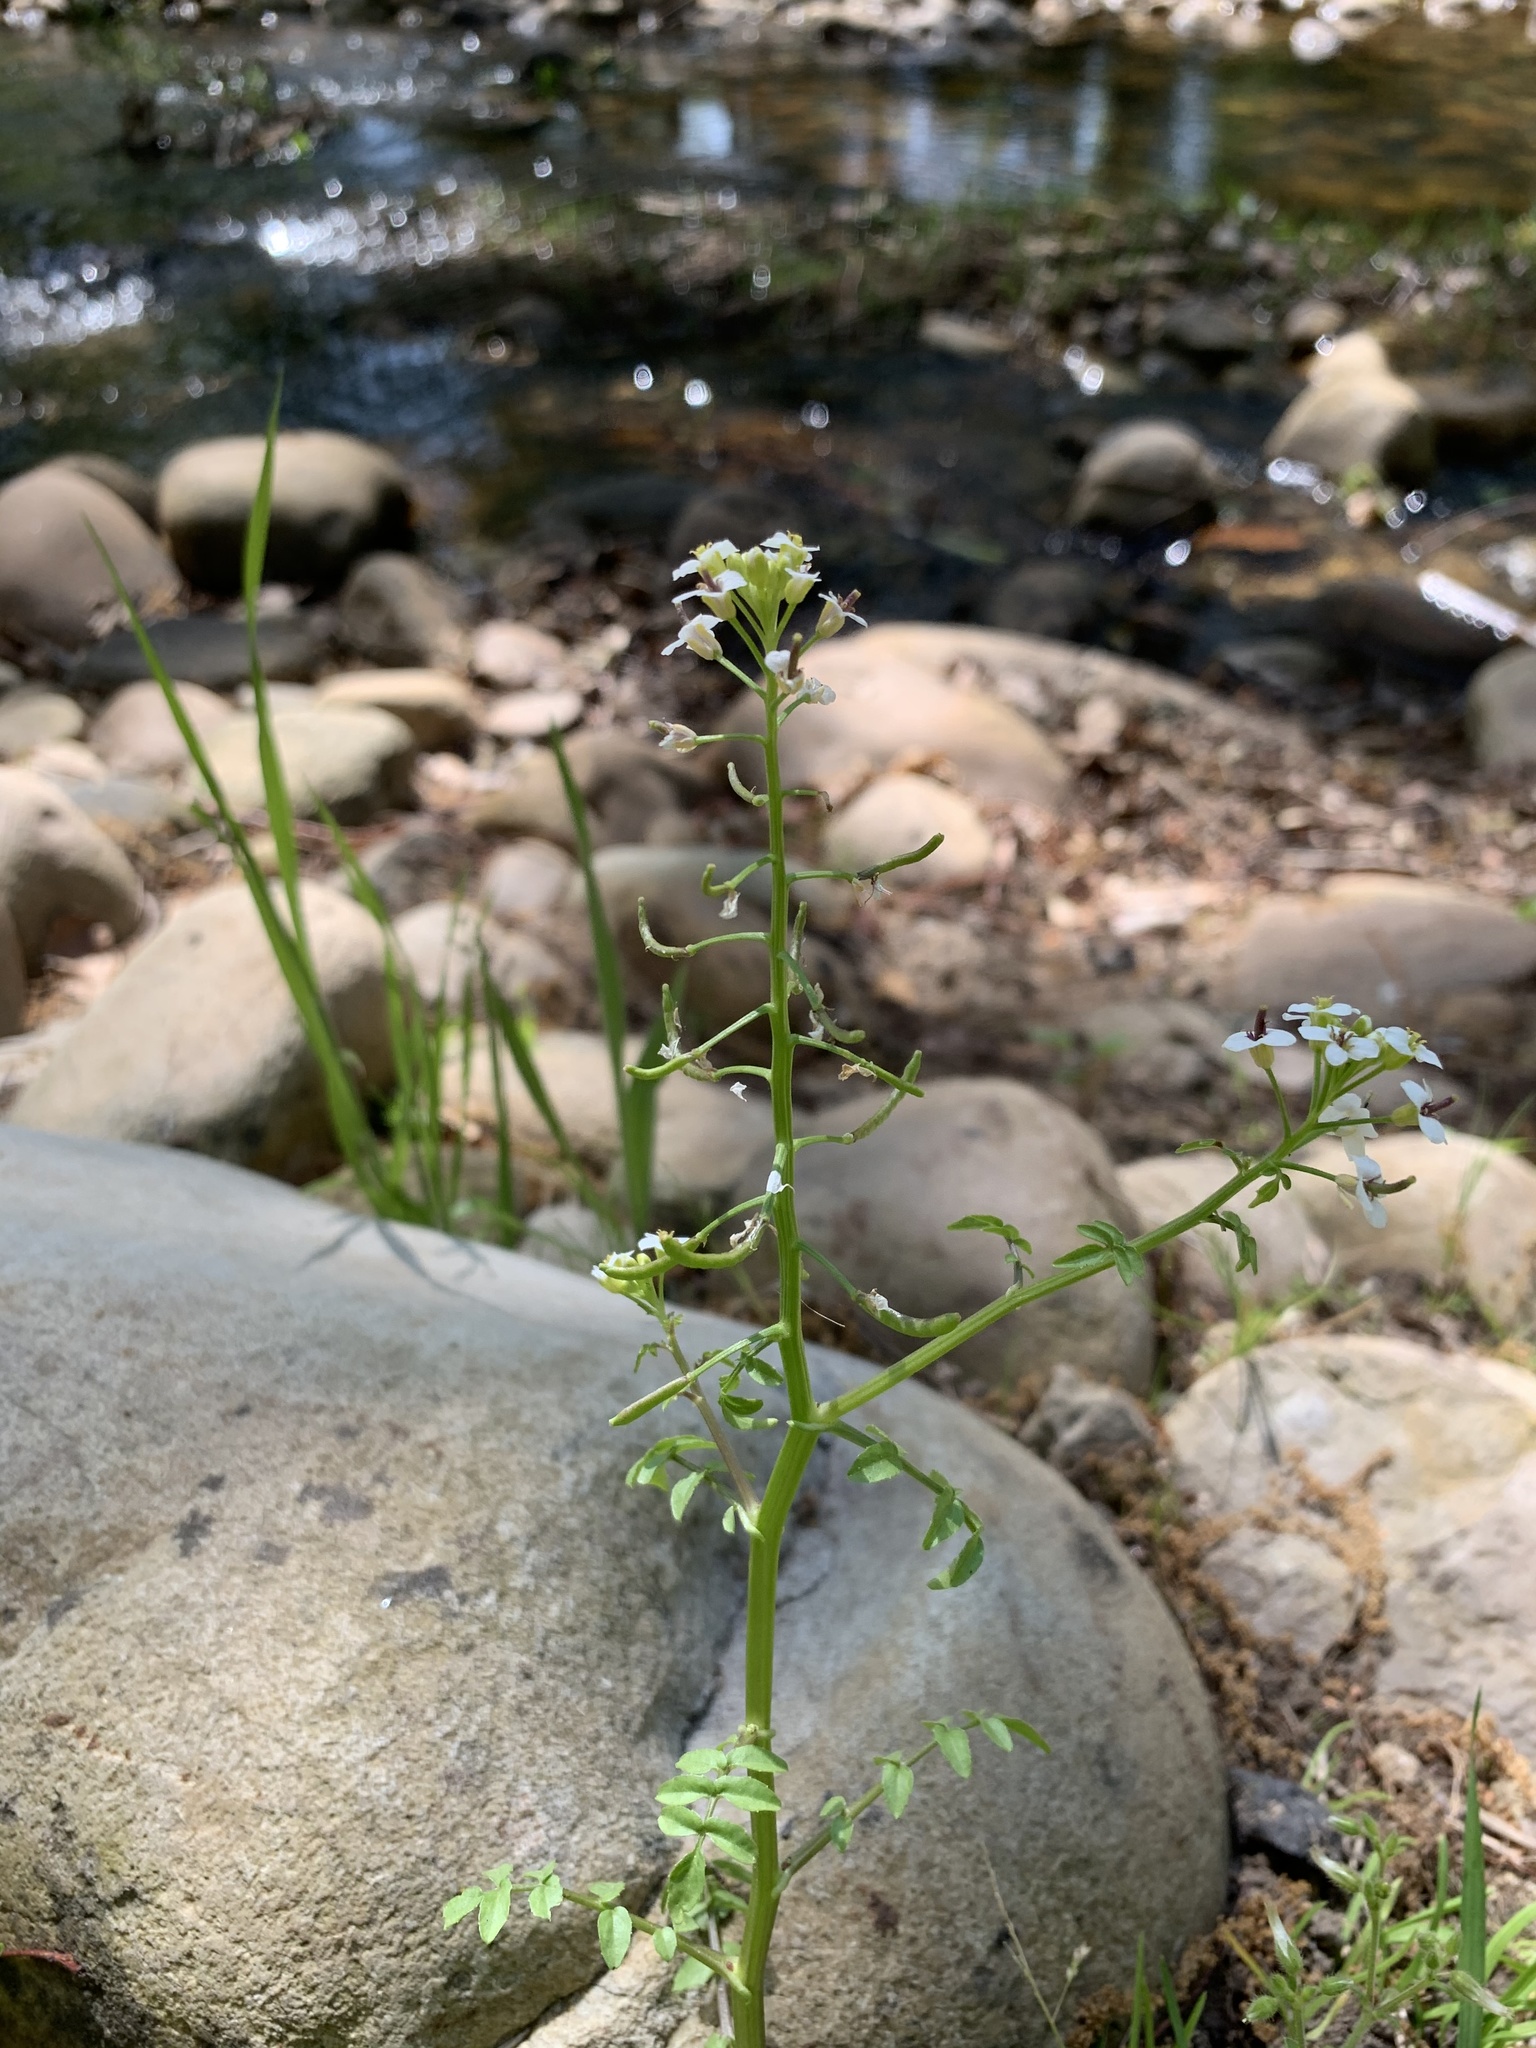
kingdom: Plantae
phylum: Tracheophyta
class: Magnoliopsida
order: Brassicales
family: Brassicaceae
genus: Nasturtium
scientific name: Nasturtium officinale
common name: Watercress
